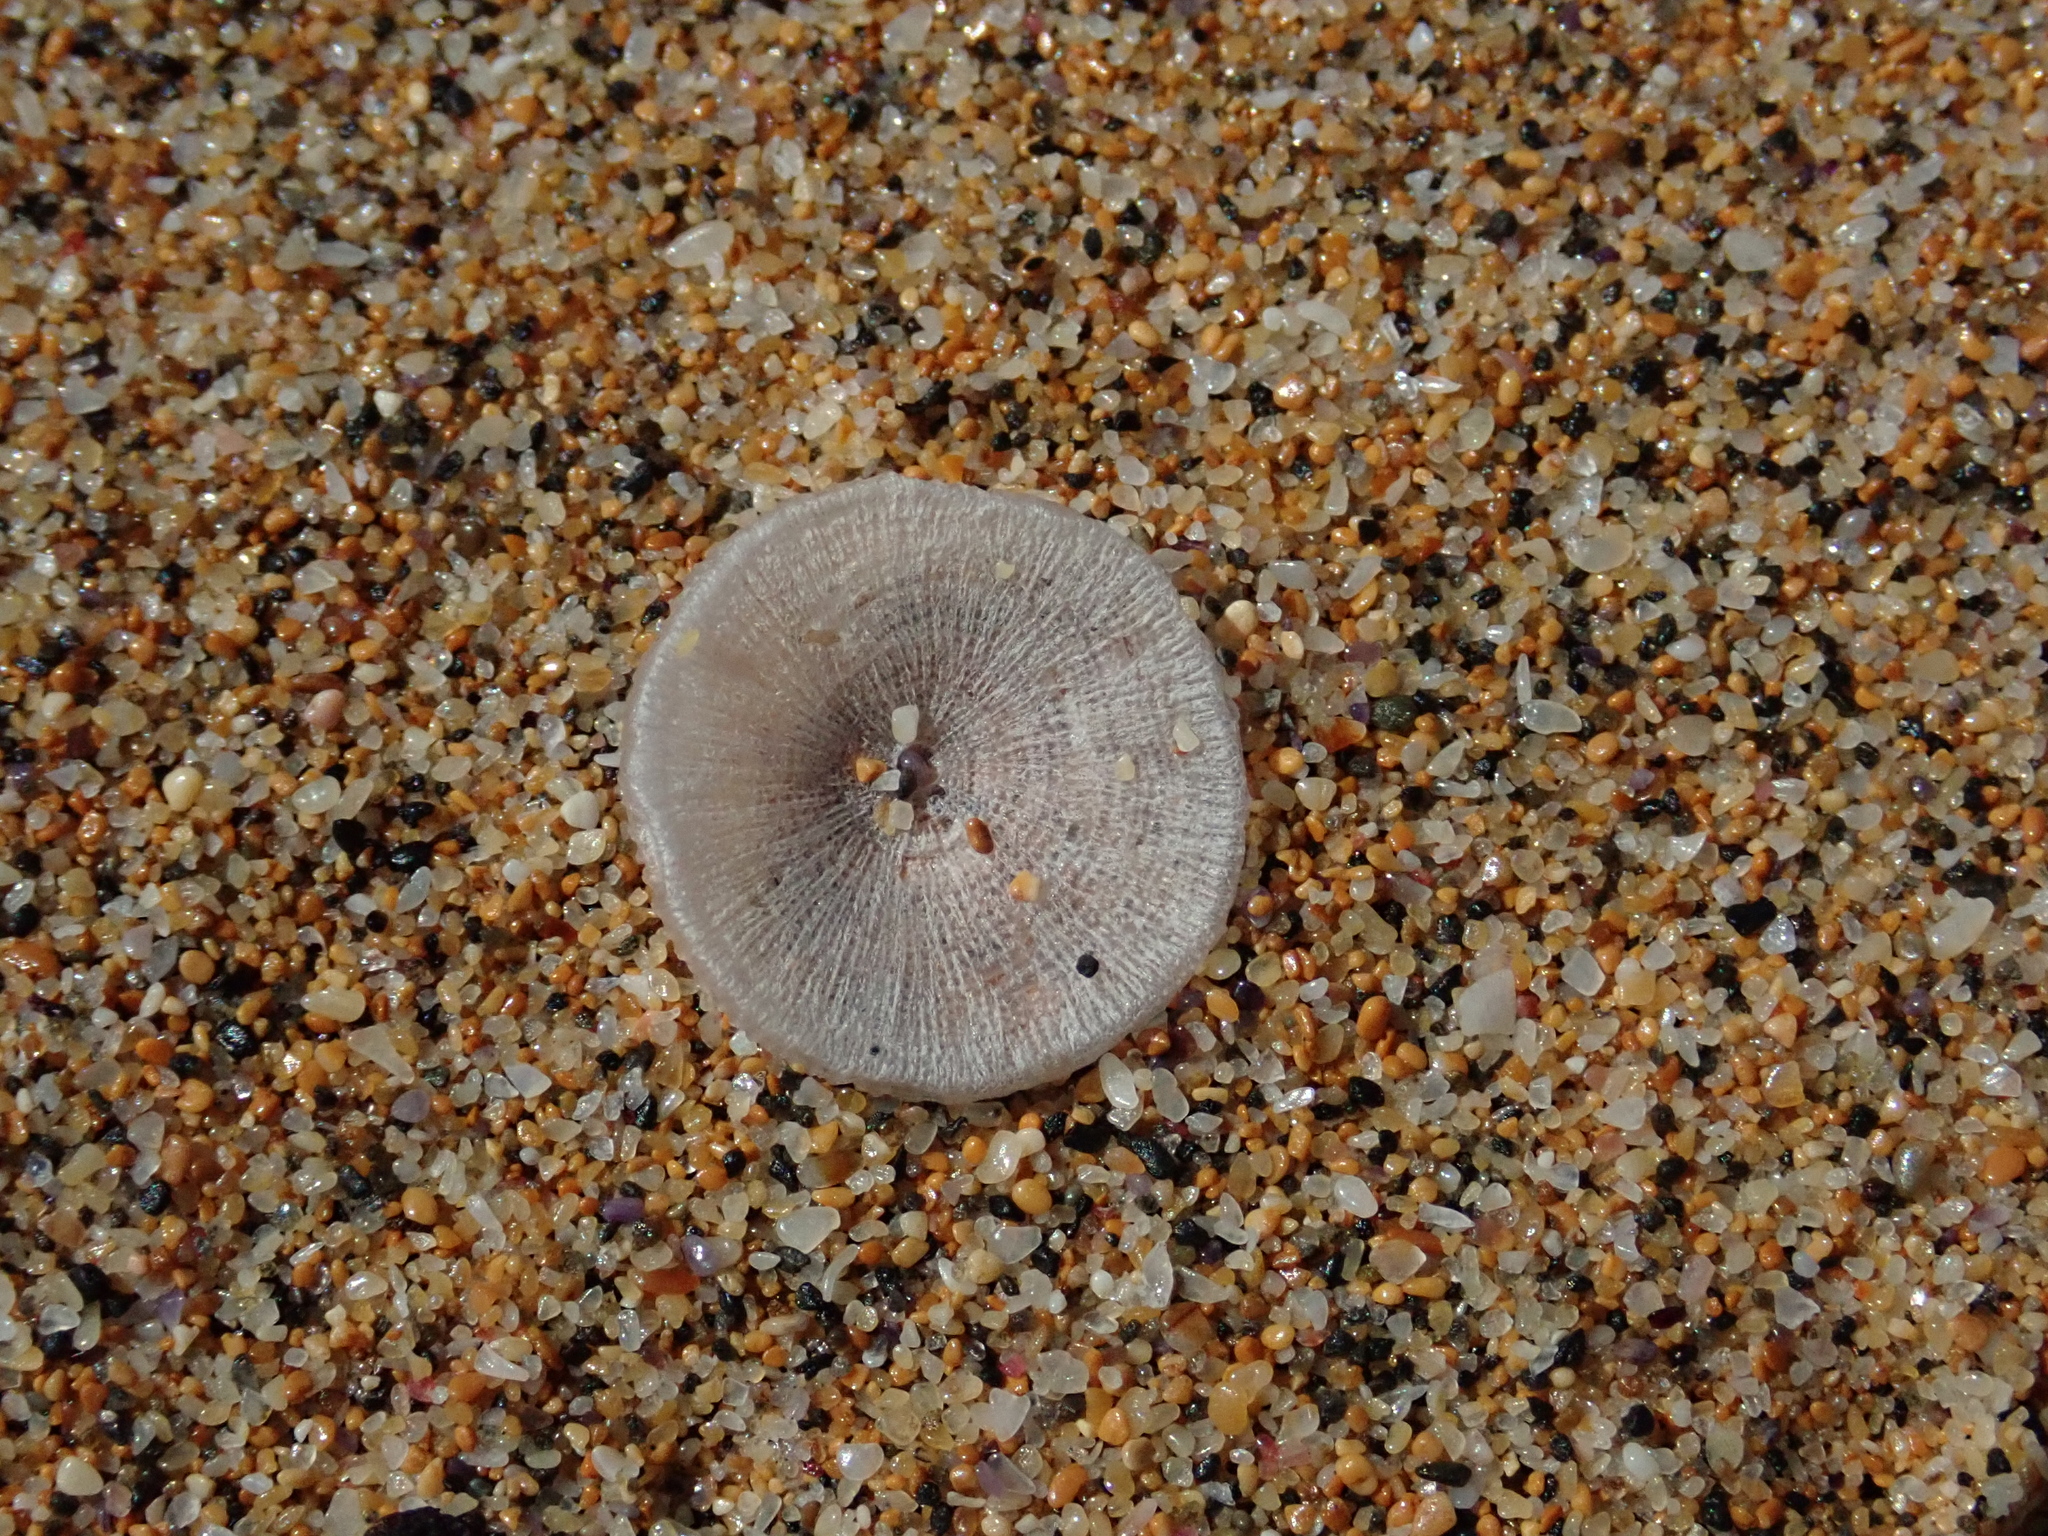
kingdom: Animalia
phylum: Cnidaria
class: Hydrozoa
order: Anthoathecata
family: Porpitidae
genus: Porpita
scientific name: Porpita porpita
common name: Blue button
